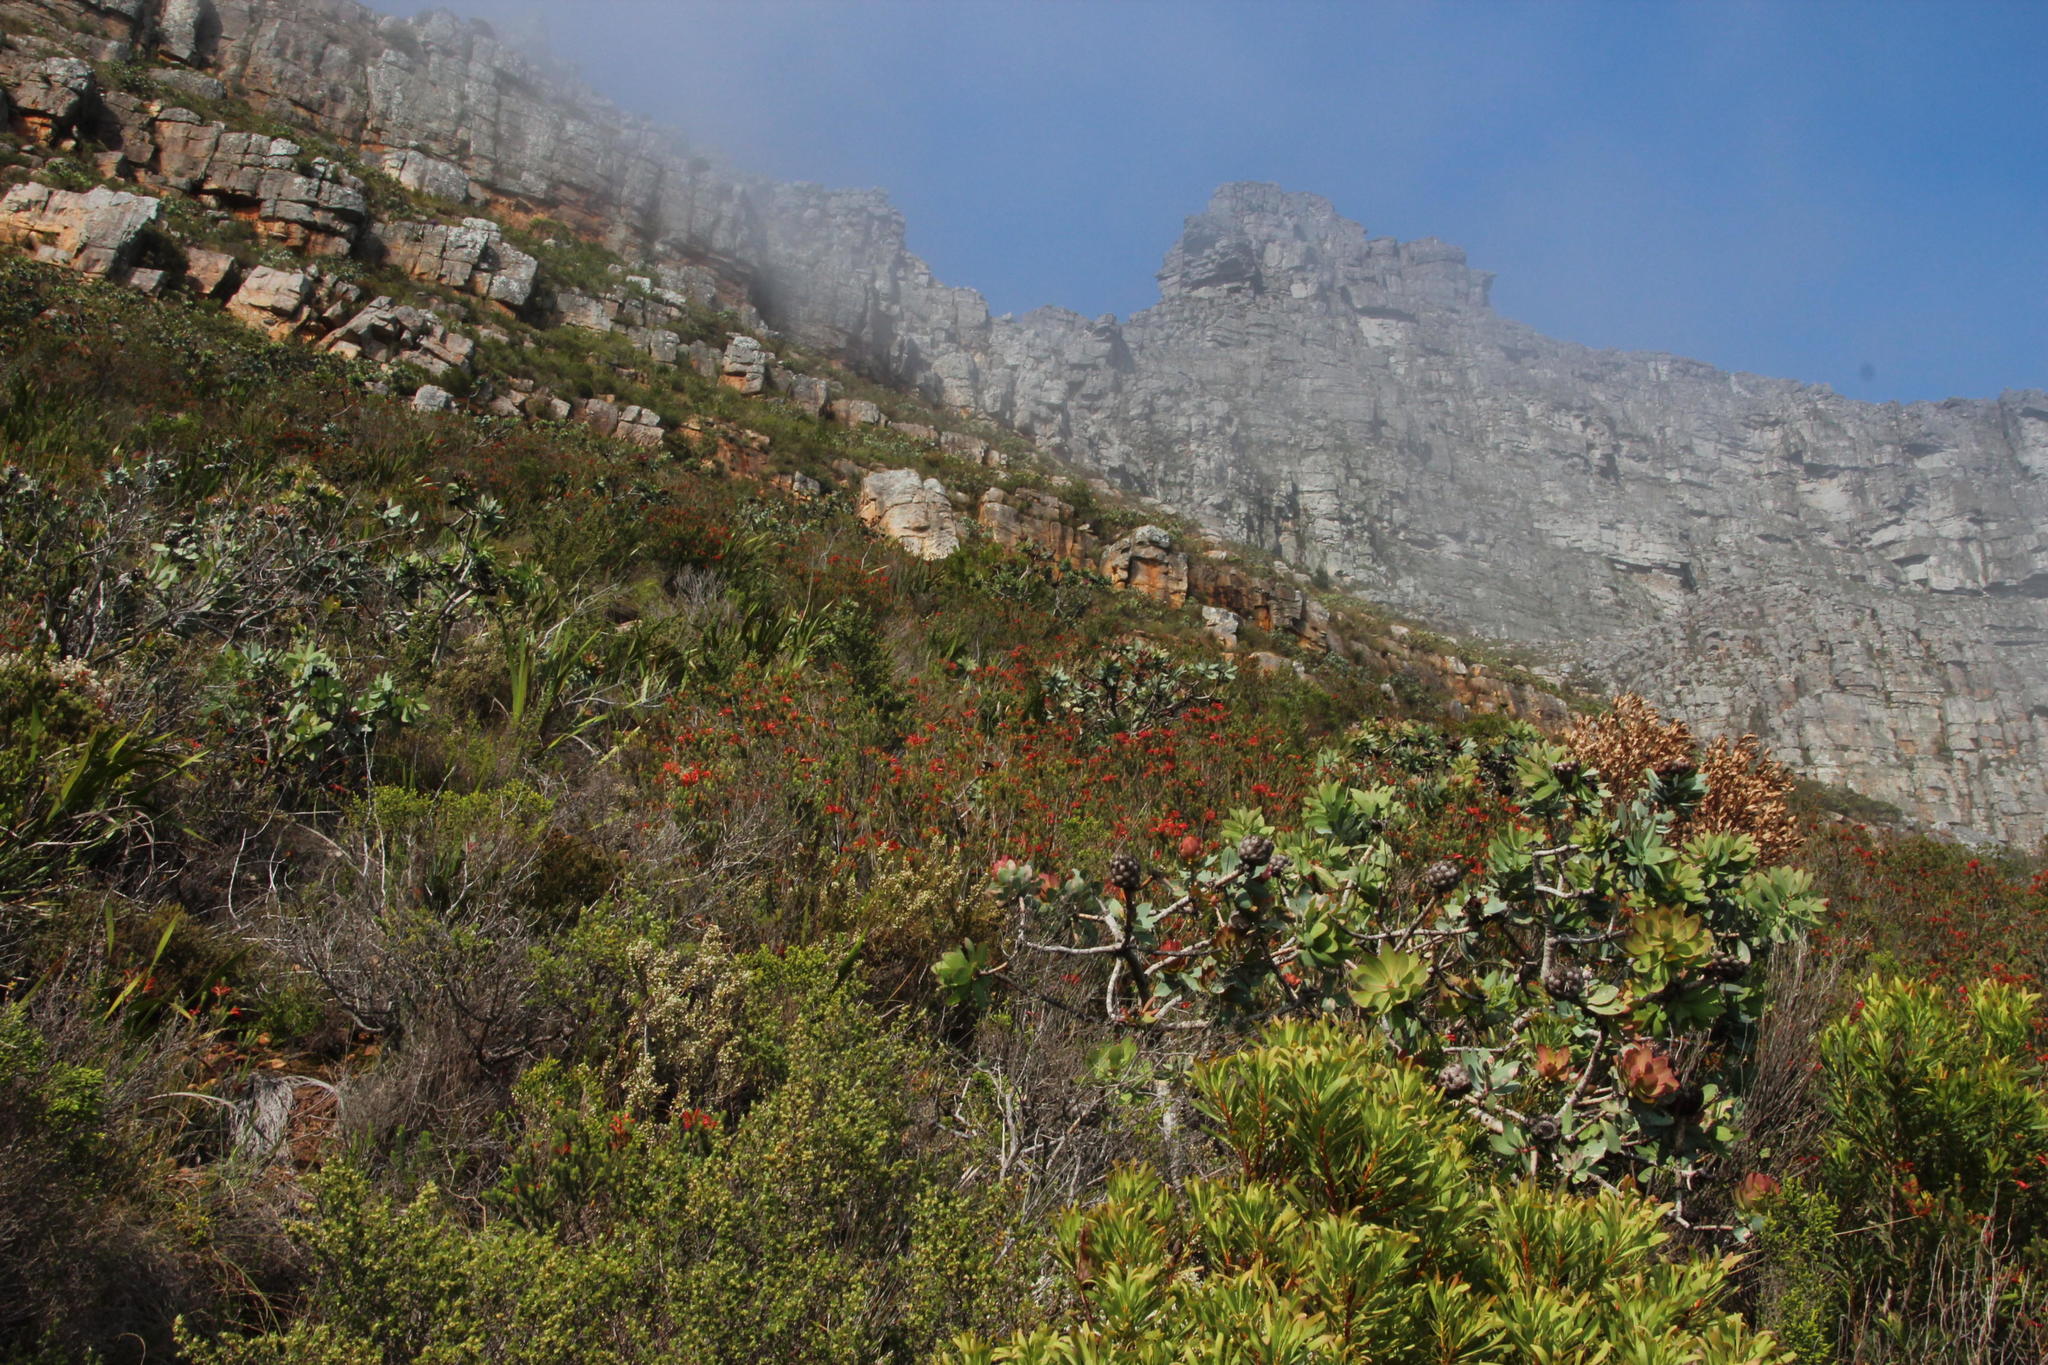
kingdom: Plantae
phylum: Tracheophyta
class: Magnoliopsida
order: Proteales
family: Proteaceae
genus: Protea
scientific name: Protea nitida
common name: Tree protea
